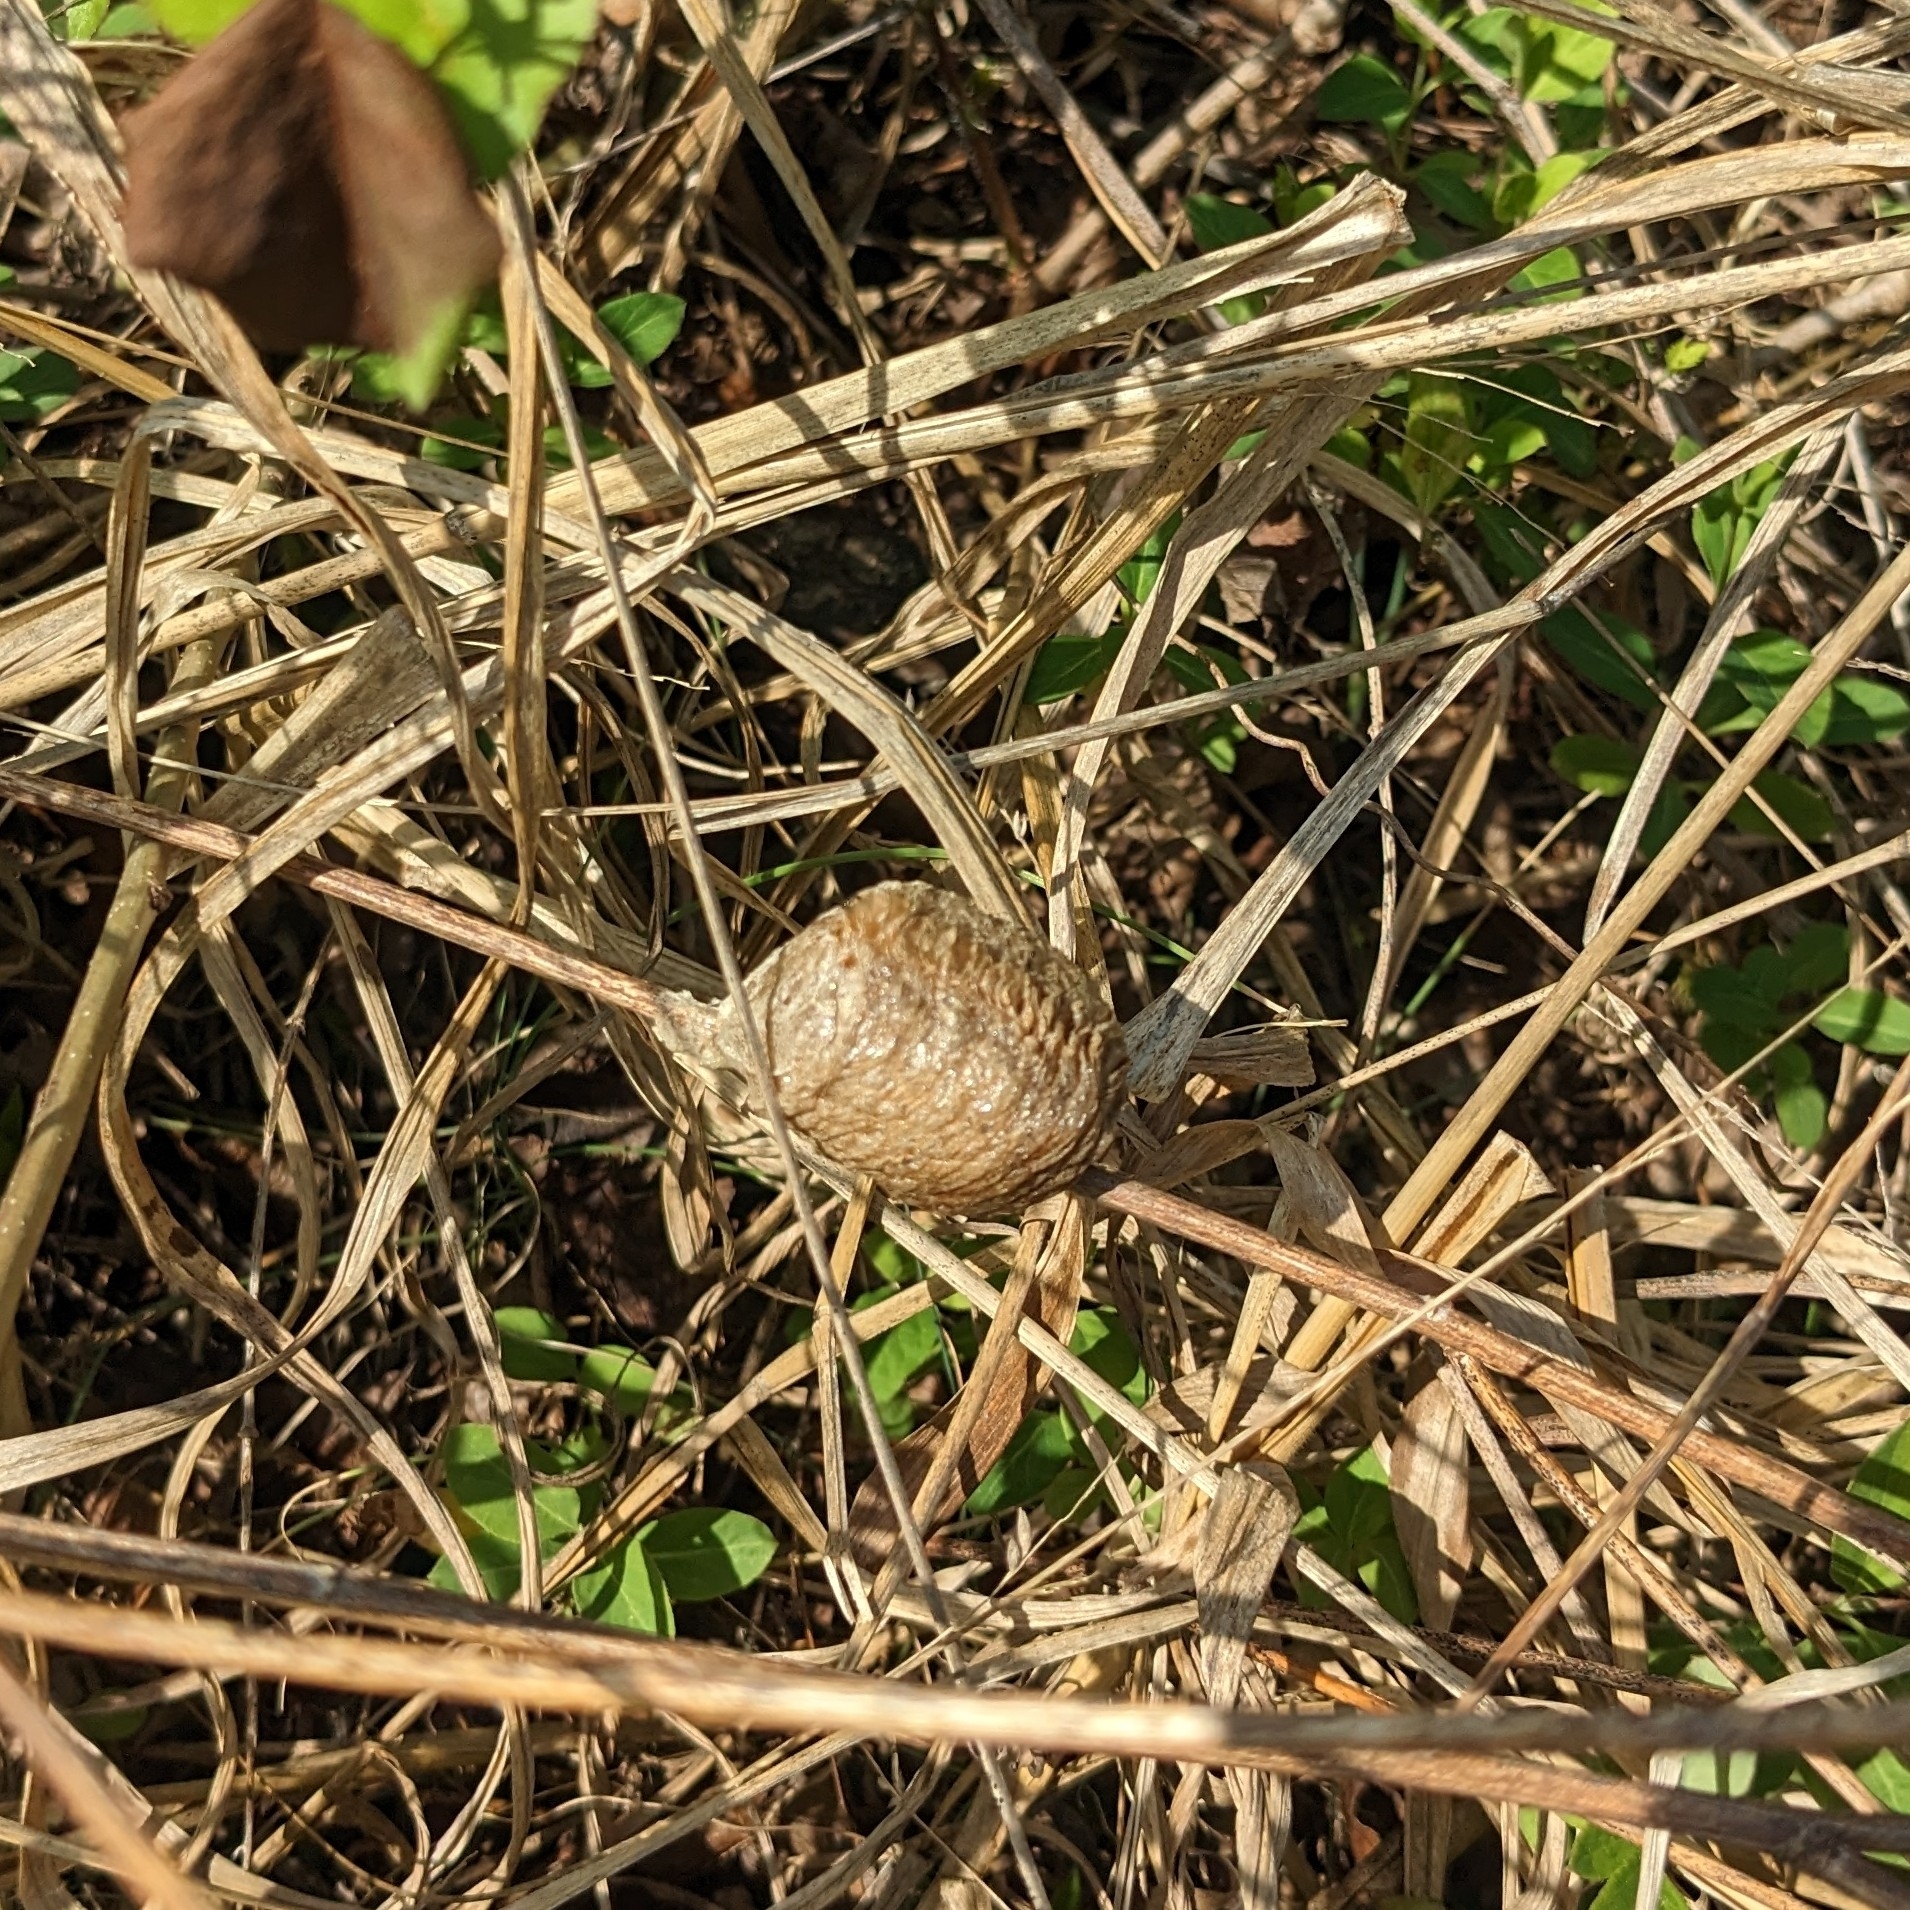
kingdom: Animalia
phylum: Arthropoda
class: Insecta
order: Mantodea
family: Mantidae
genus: Tenodera
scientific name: Tenodera sinensis
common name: Chinese mantis
